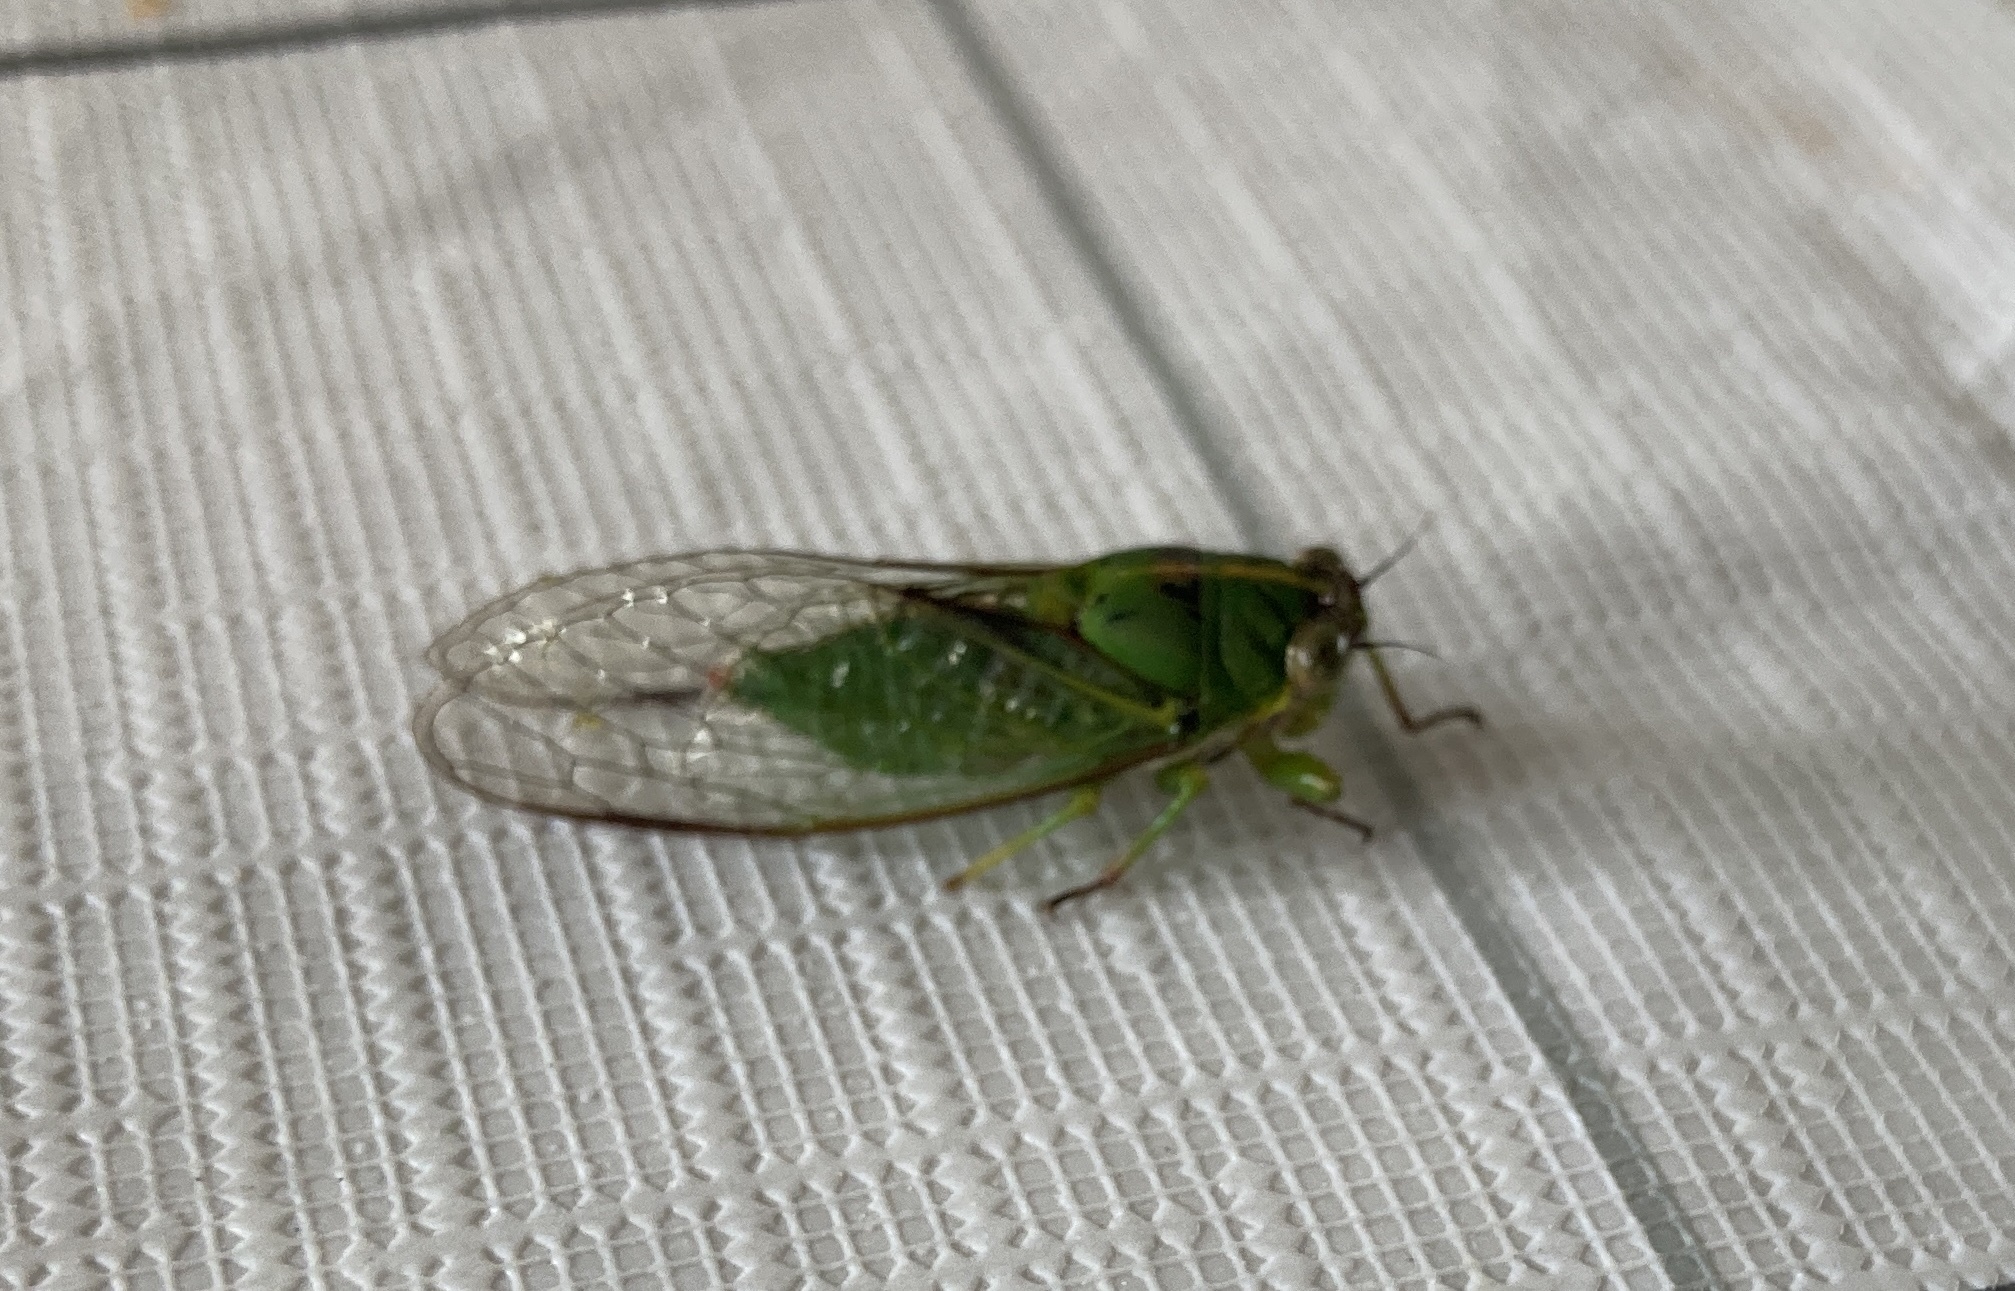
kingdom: Animalia
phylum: Arthropoda
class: Insecta
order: Hemiptera
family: Cicadidae
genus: Kikihia
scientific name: Kikihia cutora
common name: Northern snoring cicada
